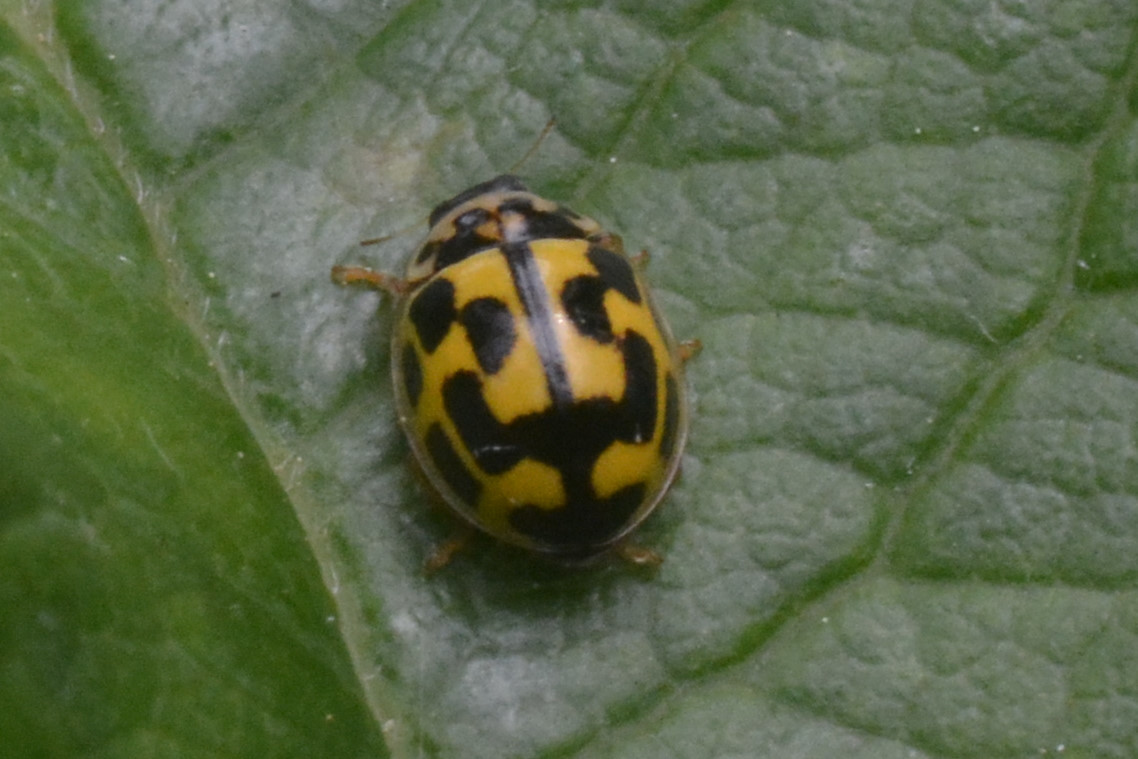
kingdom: Animalia
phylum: Arthropoda
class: Insecta
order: Coleoptera
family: Coccinellidae
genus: Propylaea
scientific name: Propylaea quatuordecimpunctata
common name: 14-spotted ladybird beetle
